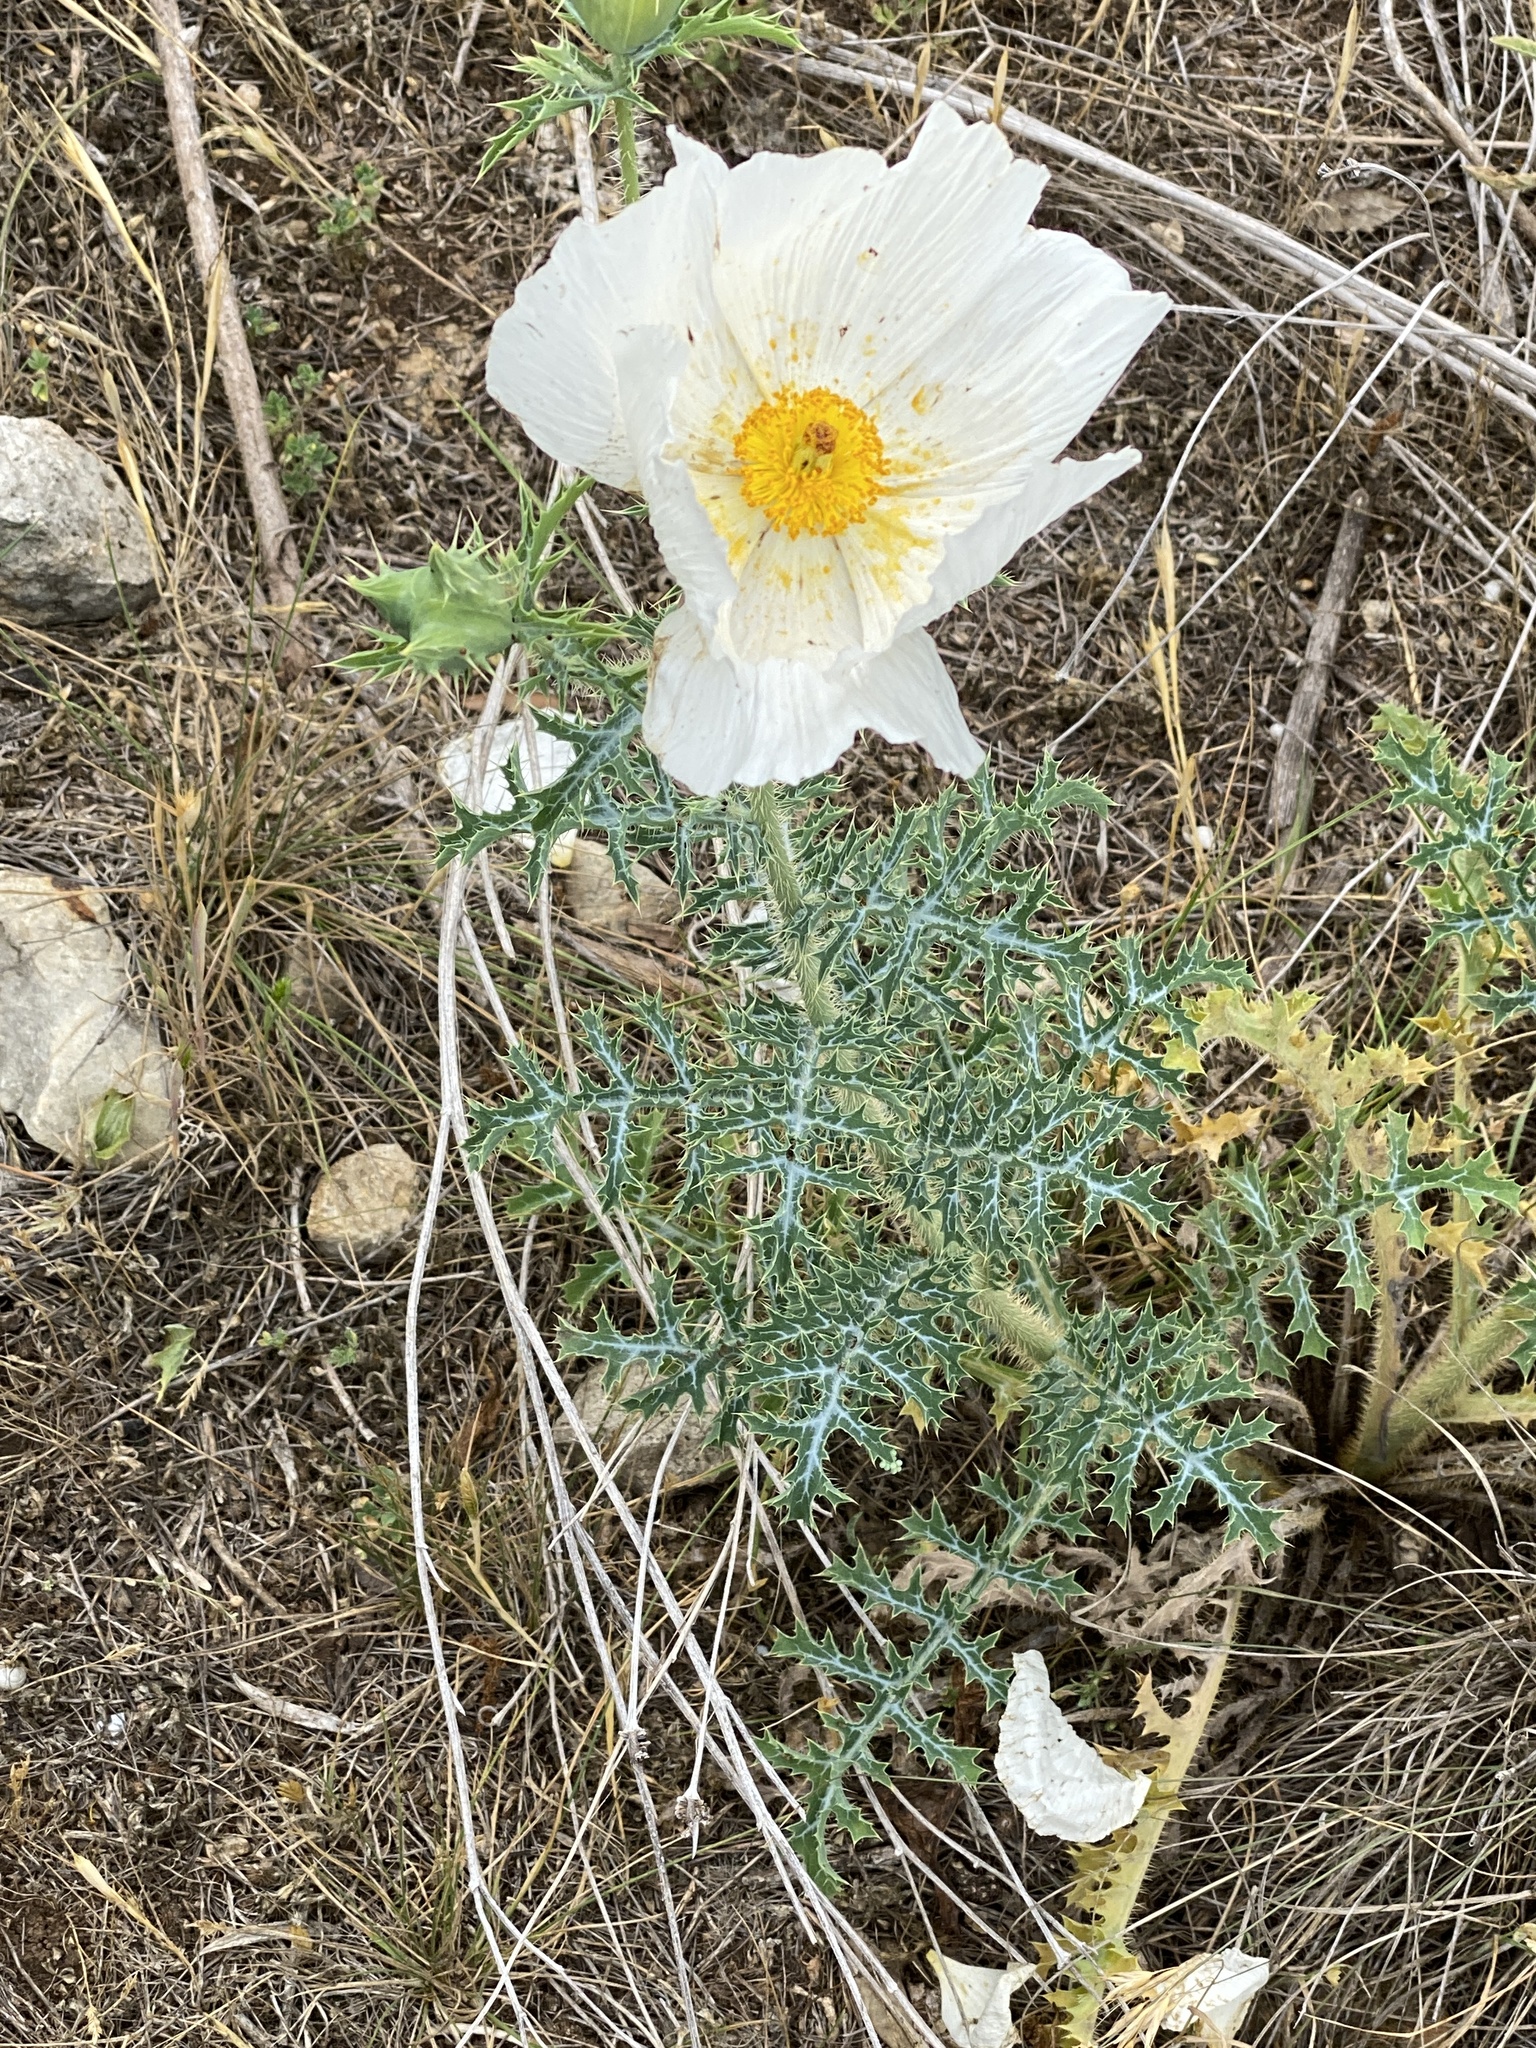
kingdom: Plantae
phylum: Tracheophyta
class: Magnoliopsida
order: Ranunculales
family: Papaveraceae
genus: Argemone
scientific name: Argemone albiflora
